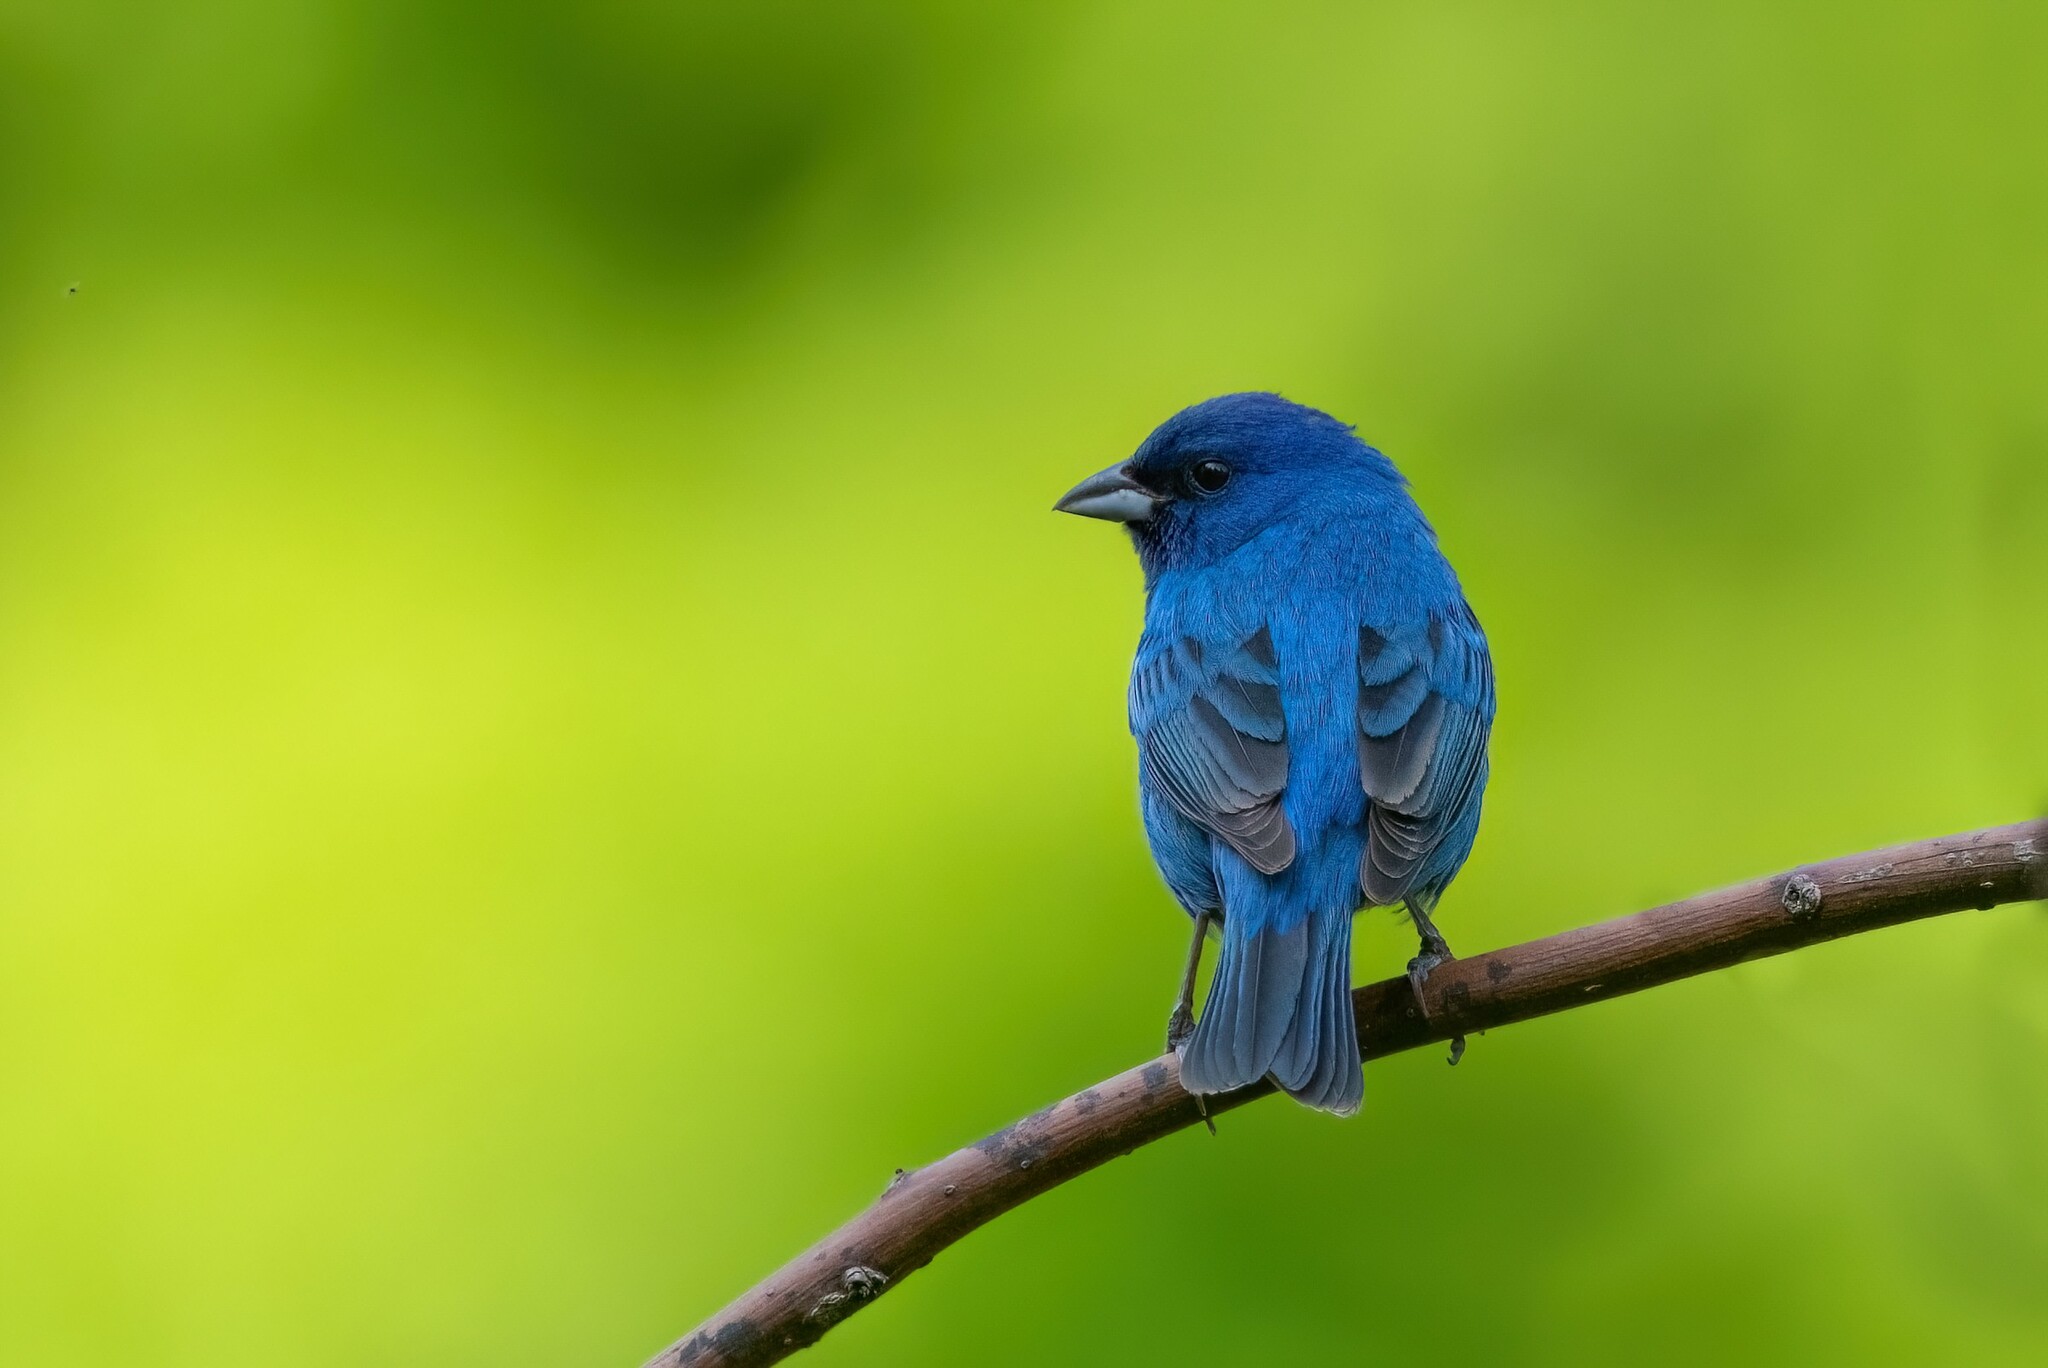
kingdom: Animalia
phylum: Chordata
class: Aves
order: Passeriformes
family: Cardinalidae
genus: Passerina
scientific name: Passerina cyanea
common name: Indigo bunting
